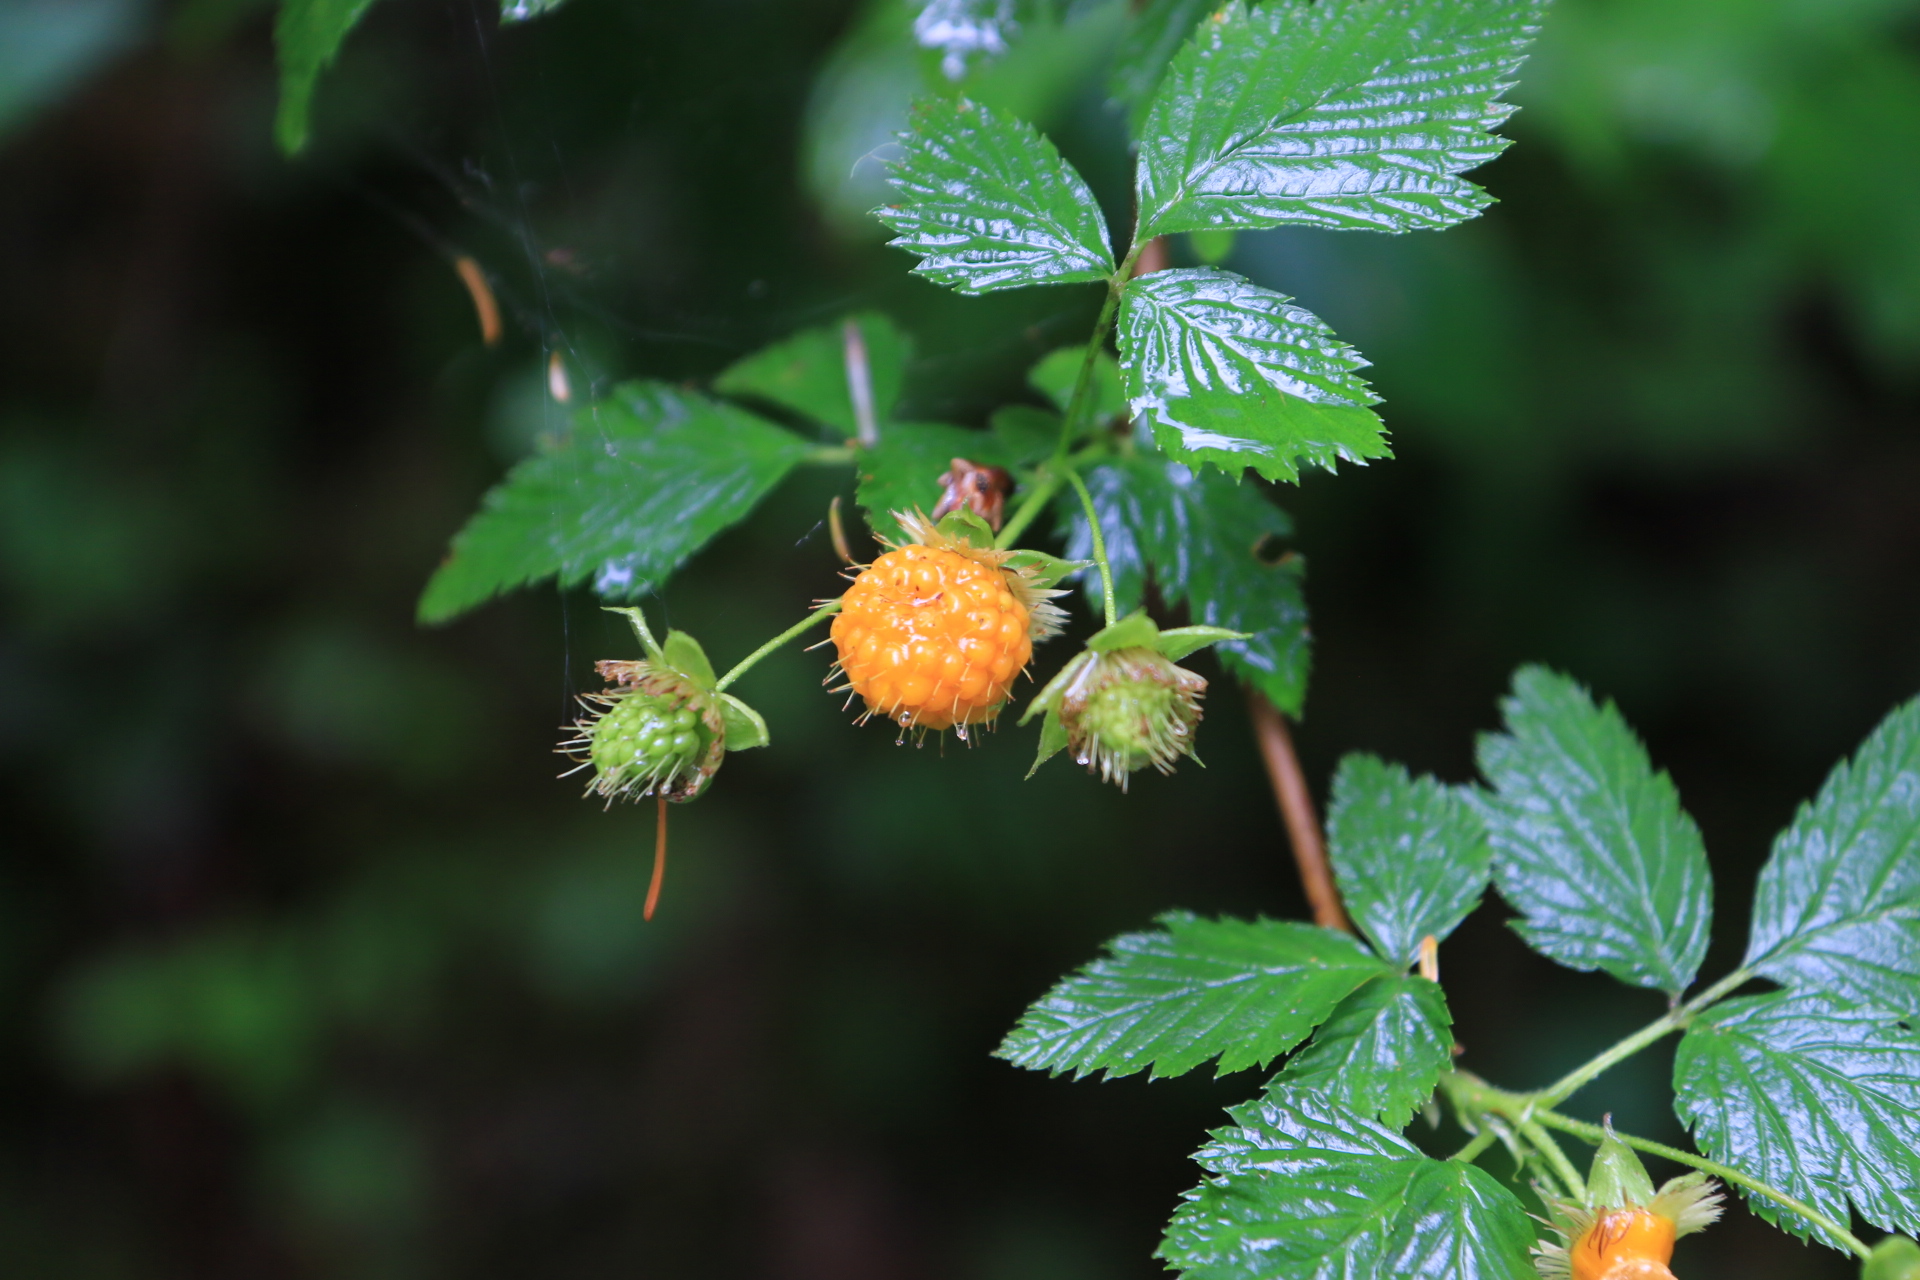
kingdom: Plantae
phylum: Tracheophyta
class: Magnoliopsida
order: Rosales
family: Rosaceae
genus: Rubus
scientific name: Rubus spectabilis
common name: Salmonberry
